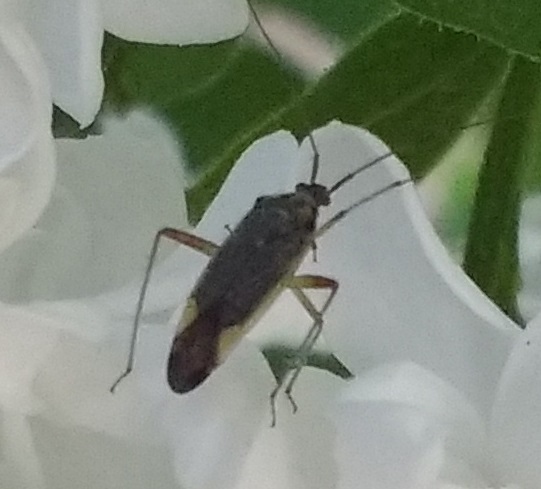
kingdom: Animalia
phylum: Arthropoda
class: Insecta
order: Hemiptera
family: Miridae
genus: Closterotomus
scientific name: Closterotomus trivialis
